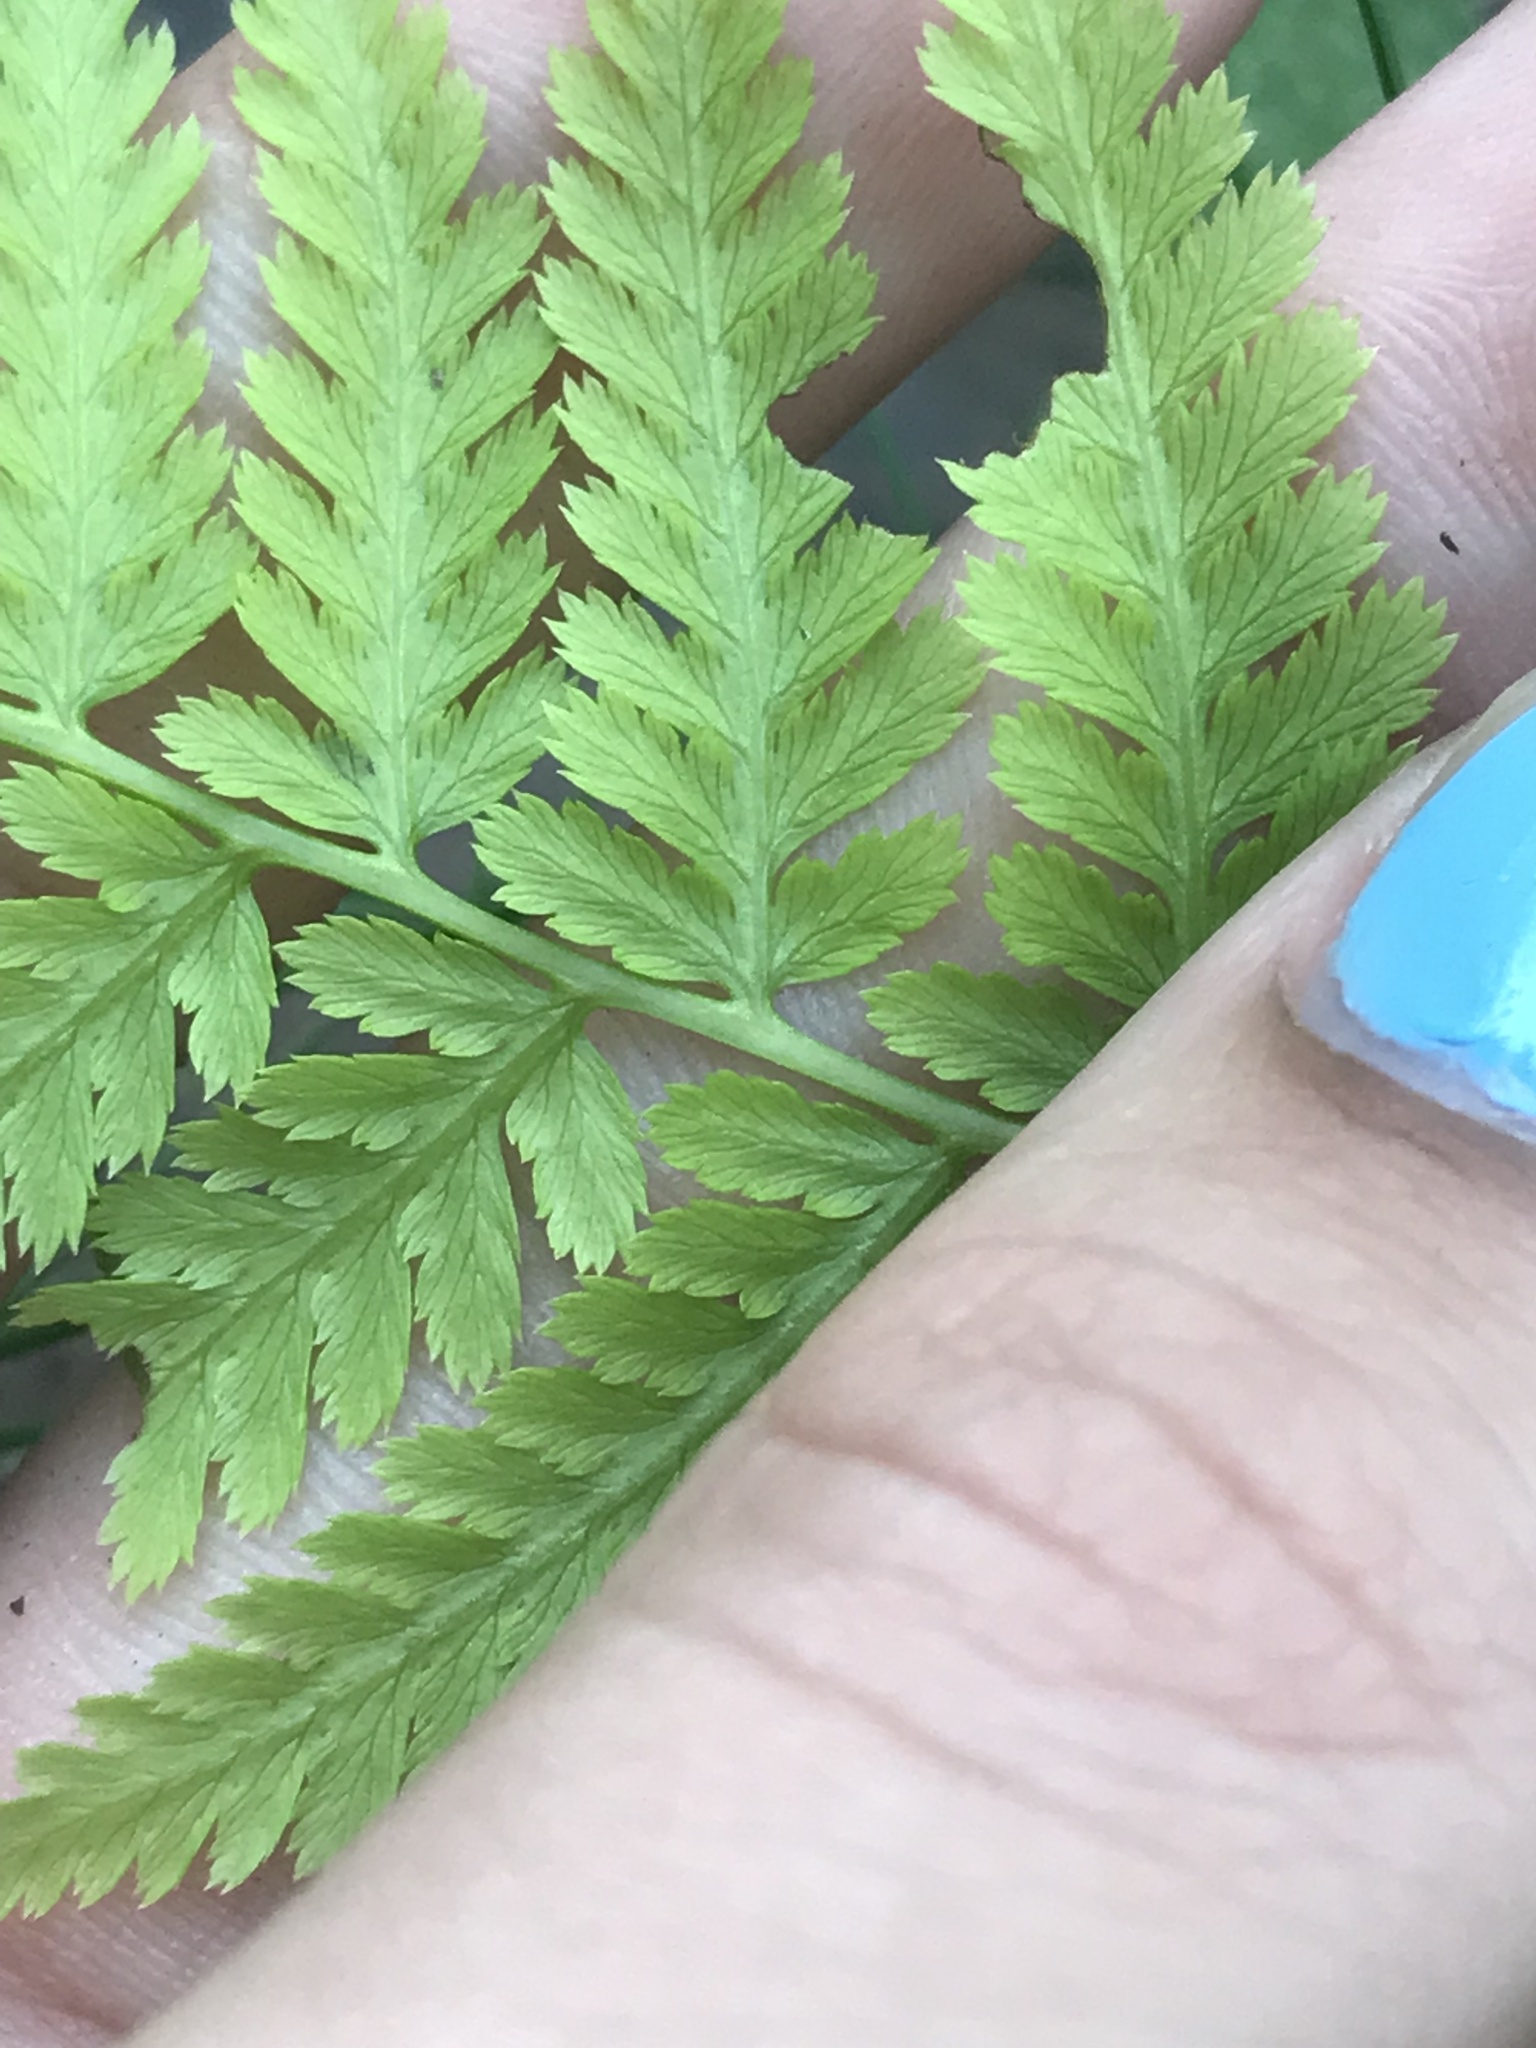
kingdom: Plantae
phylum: Tracheophyta
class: Polypodiopsida
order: Polypodiales
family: Athyriaceae
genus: Athyrium
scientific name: Athyrium angustum
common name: Northern lady fern
